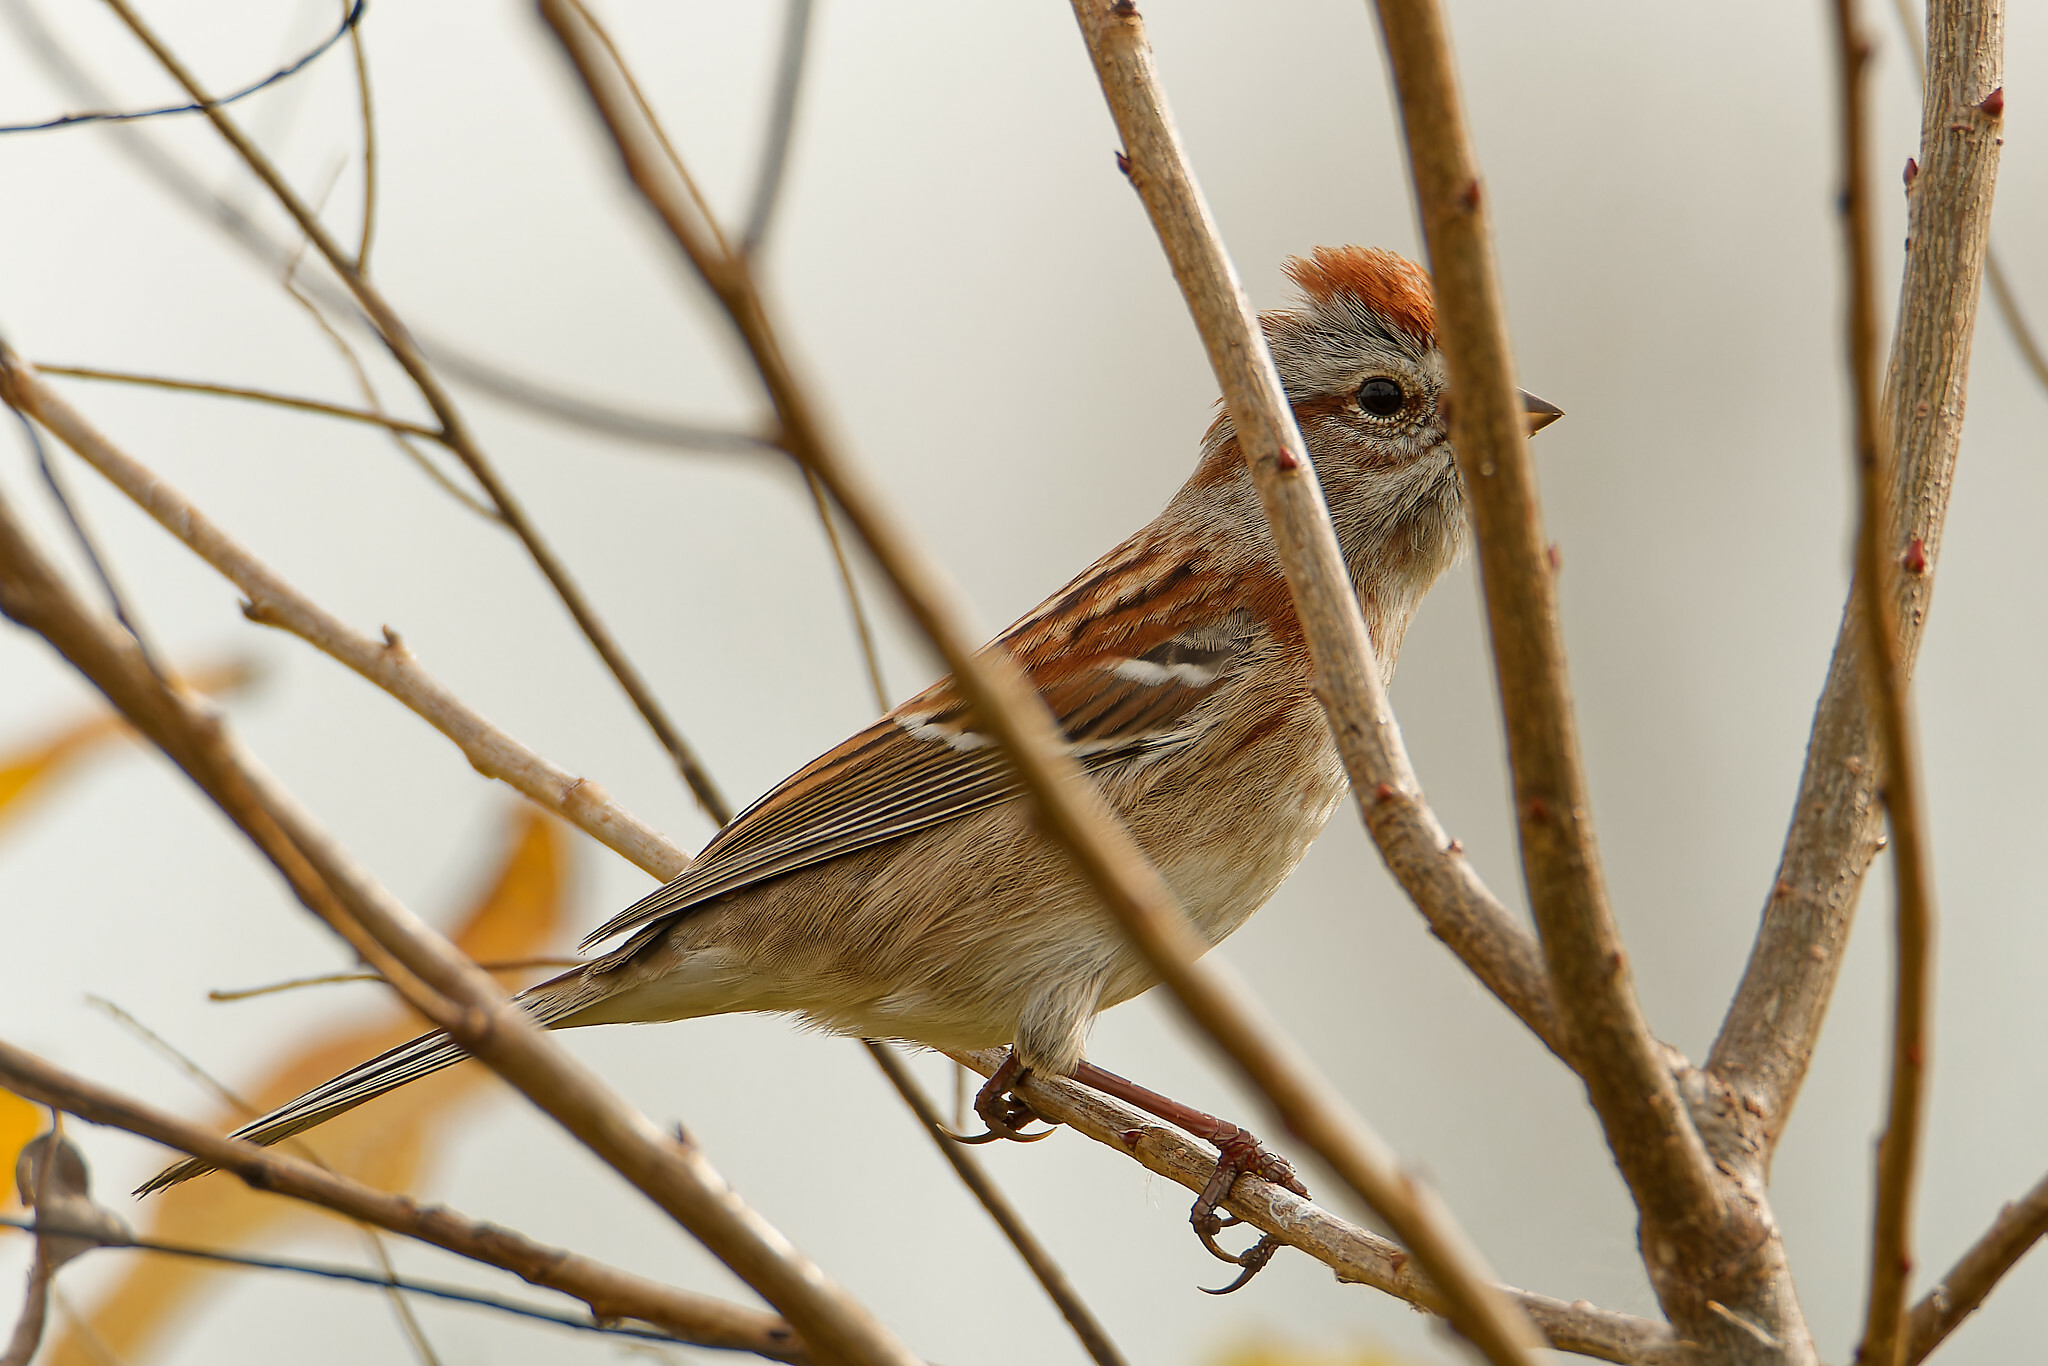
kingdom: Animalia
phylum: Chordata
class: Aves
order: Passeriformes
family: Passerellidae
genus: Spizelloides
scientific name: Spizelloides arborea
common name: American tree sparrow
